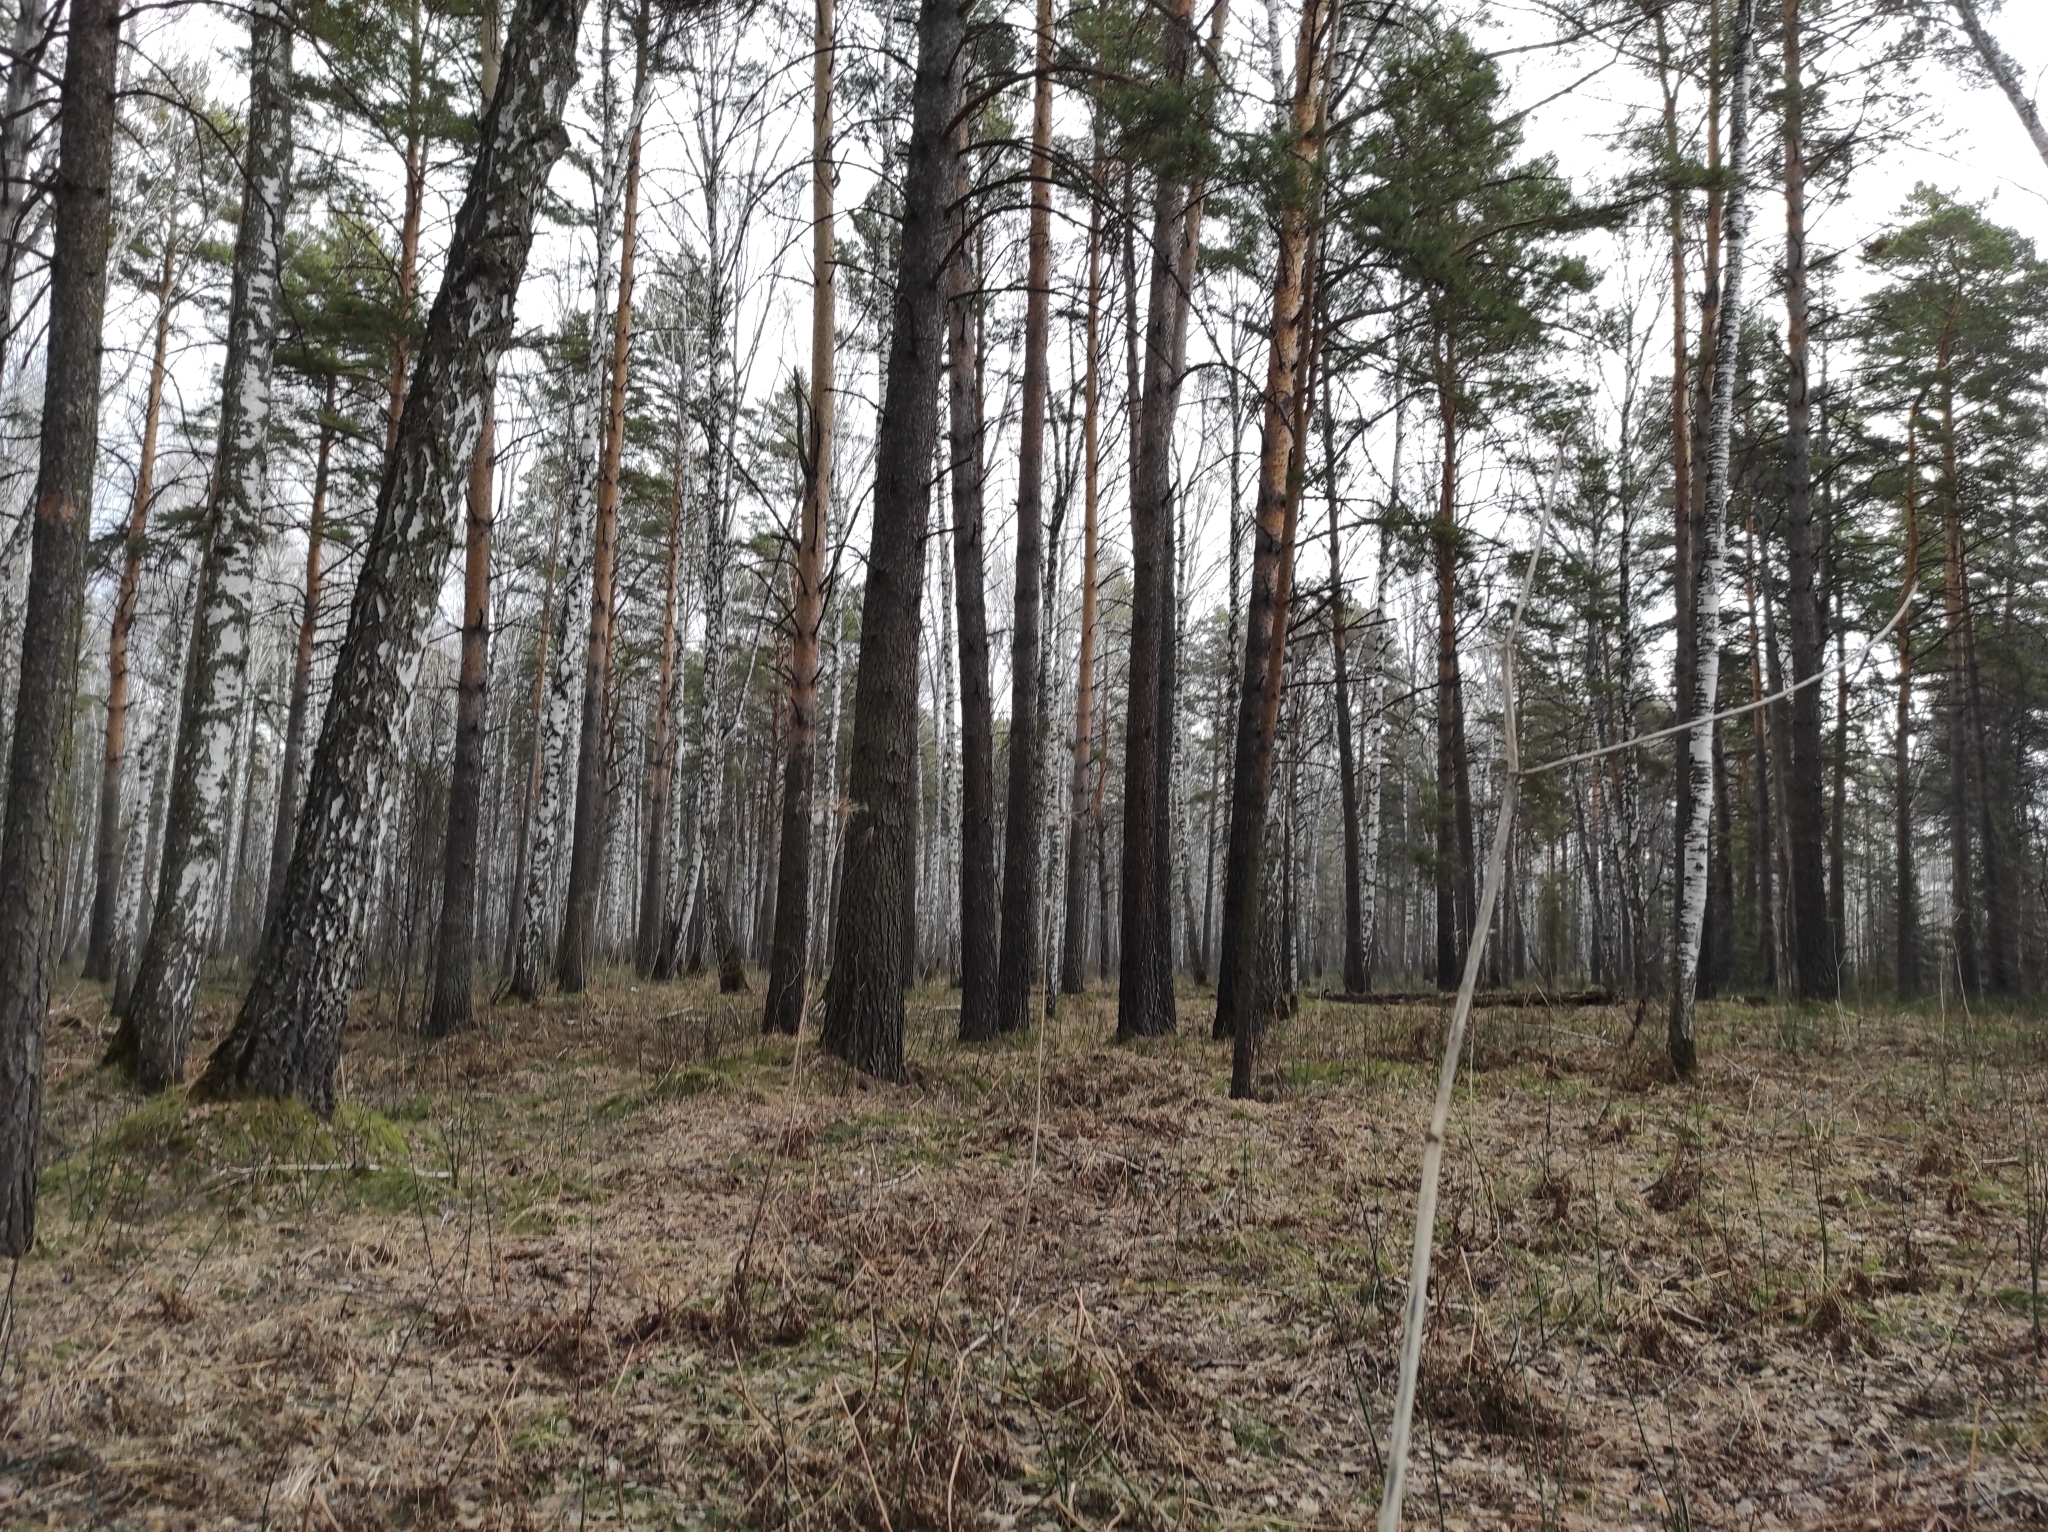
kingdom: Plantae
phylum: Tracheophyta
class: Pinopsida
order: Pinales
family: Pinaceae
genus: Pinus
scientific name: Pinus sylvestris
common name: Scots pine
